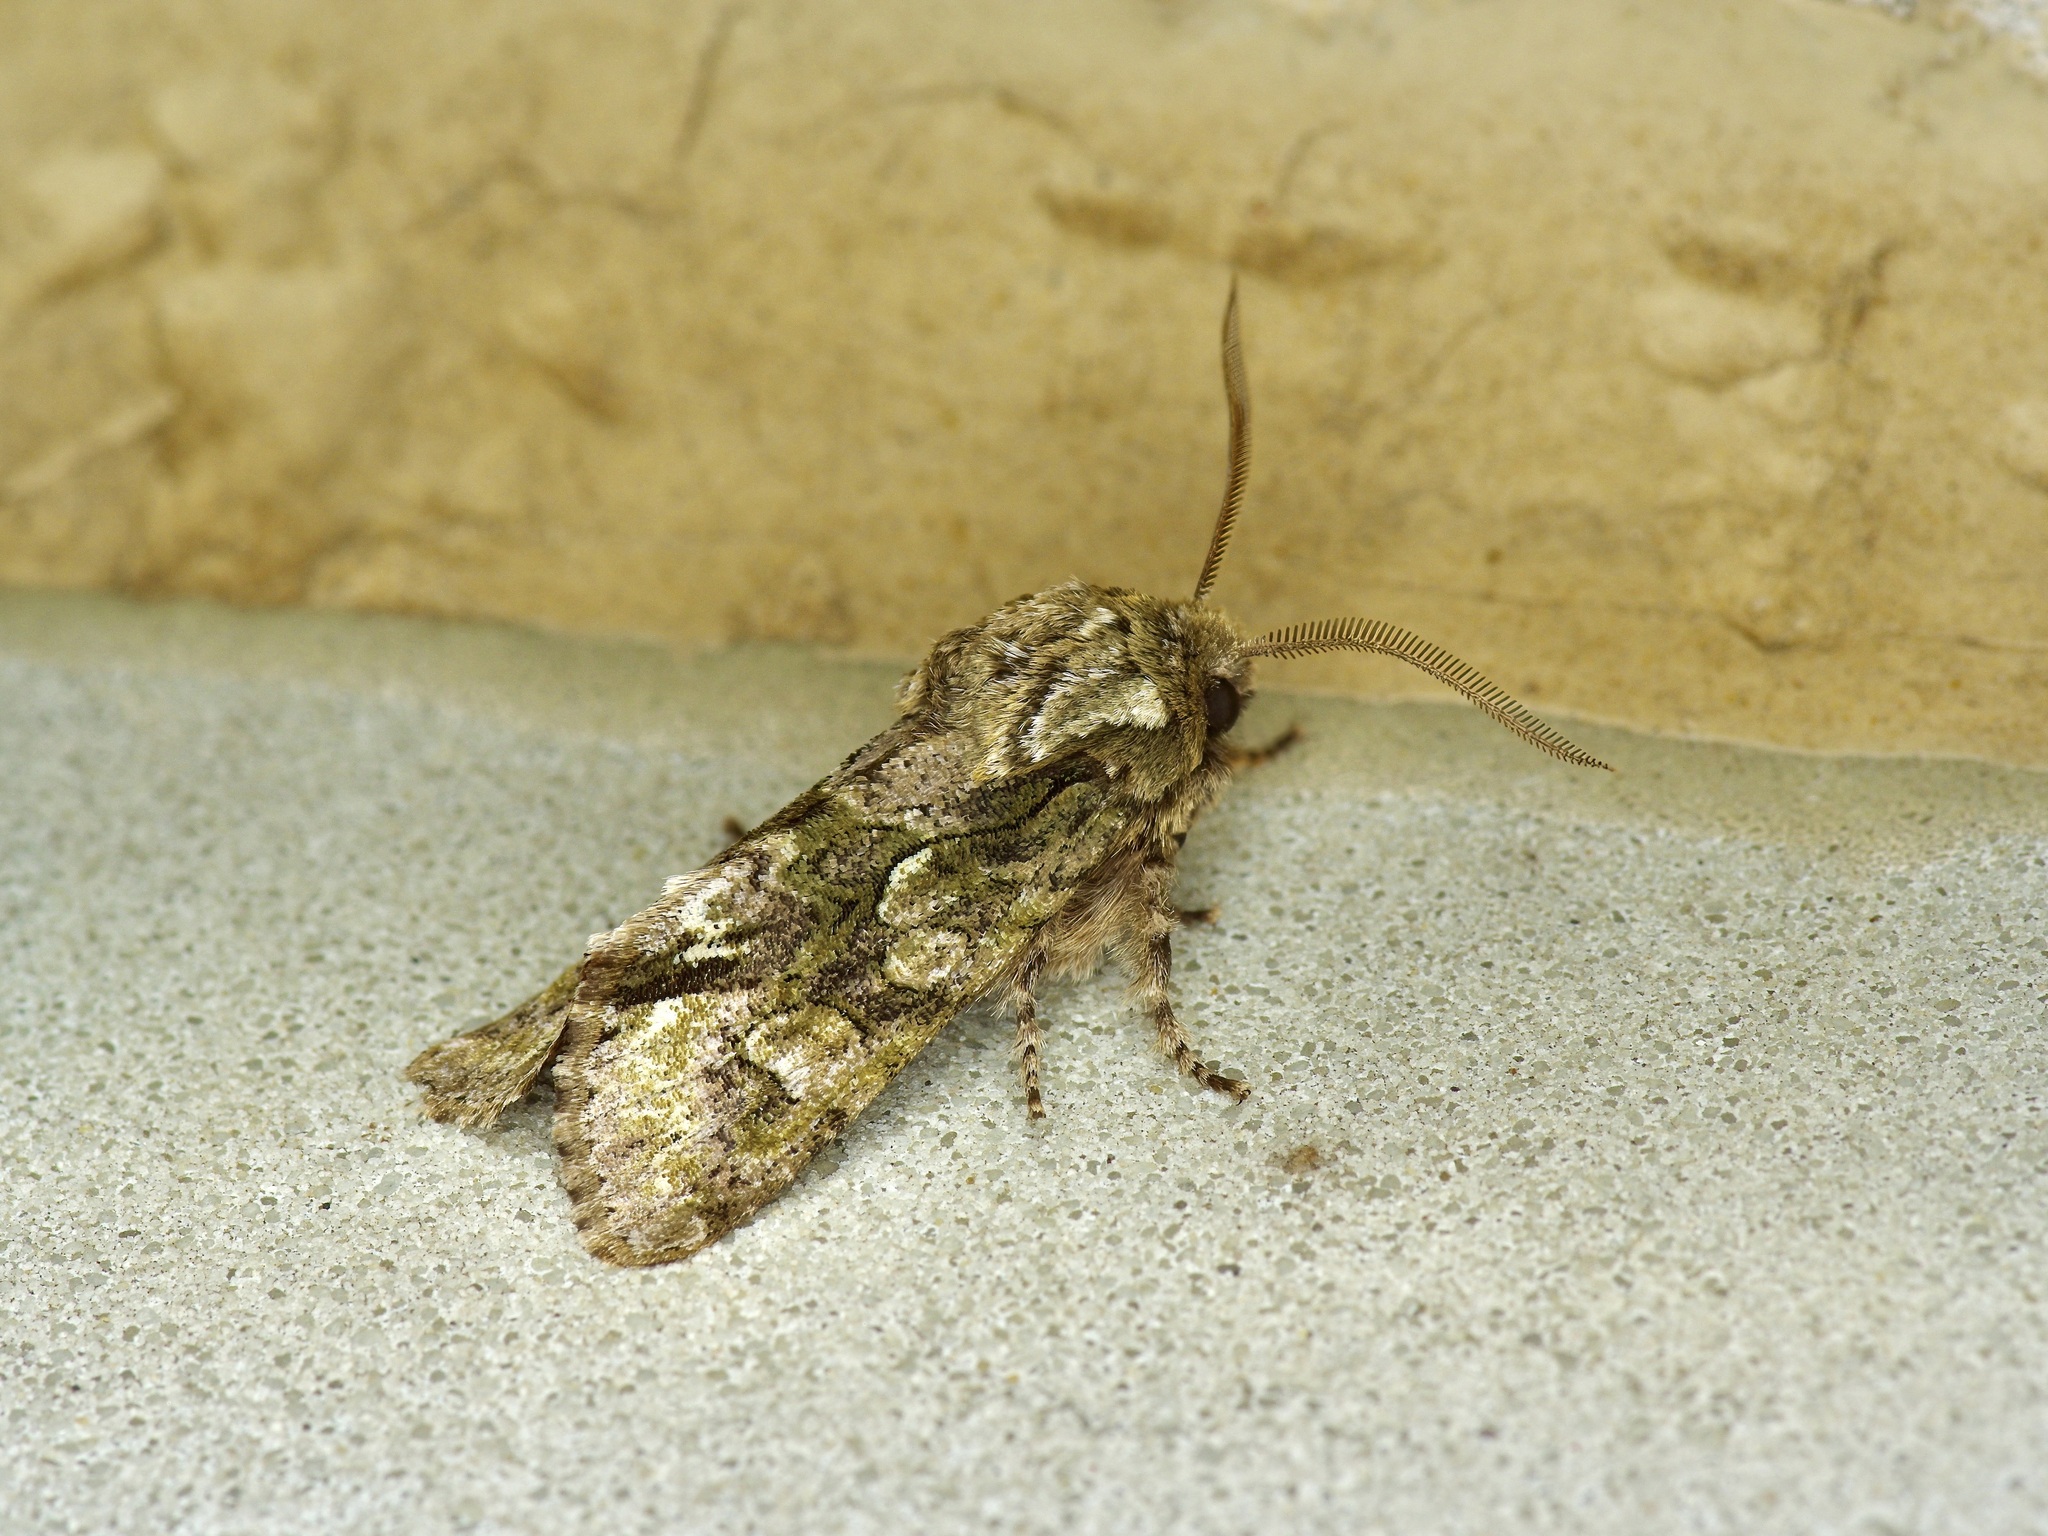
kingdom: Animalia
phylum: Arthropoda
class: Insecta
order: Lepidoptera
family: Noctuidae
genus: Psaphida
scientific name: Psaphida resumens
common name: Figure-eight sallow
